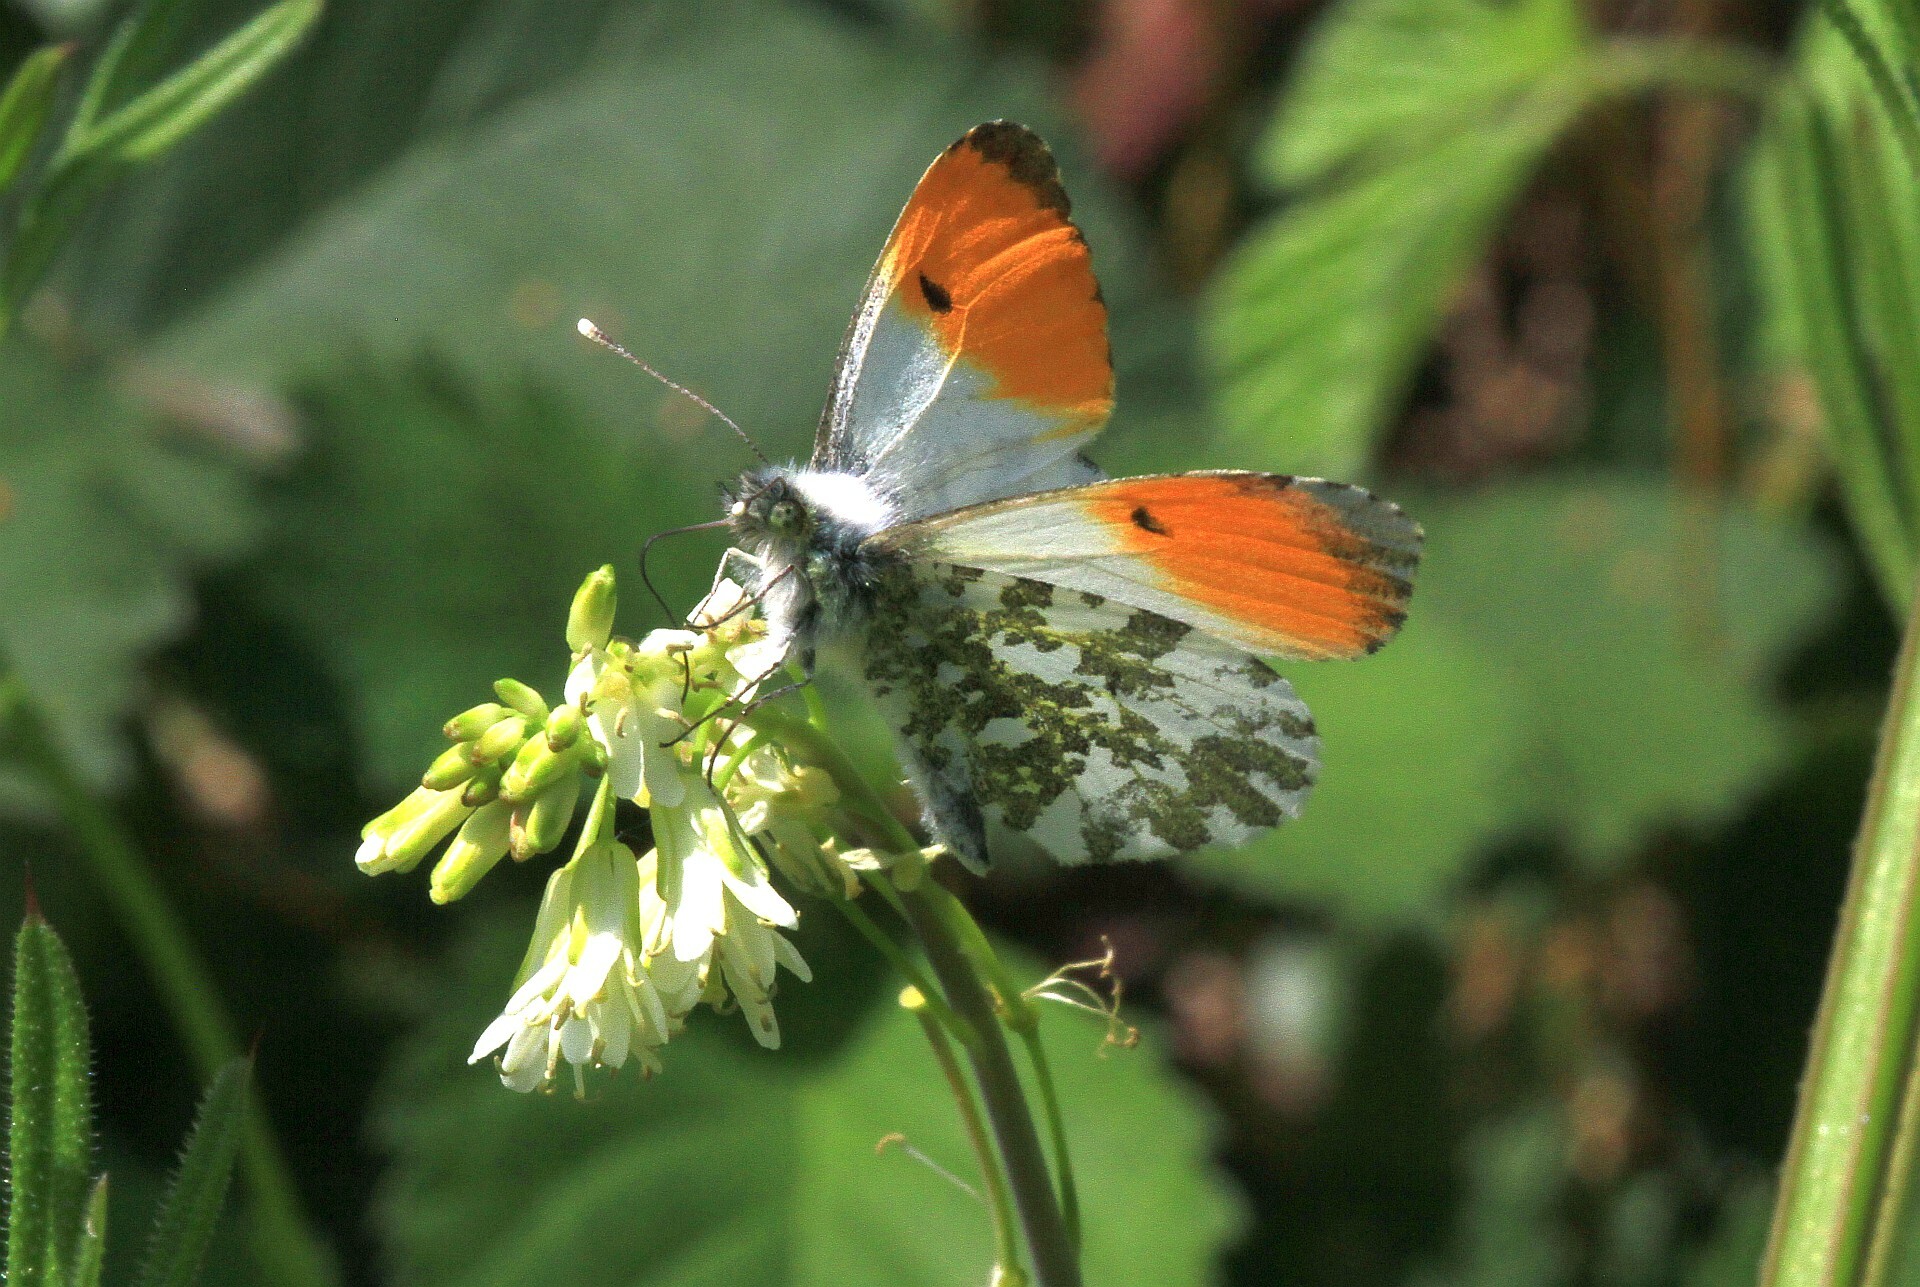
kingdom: Animalia
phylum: Arthropoda
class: Insecta
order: Lepidoptera
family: Pieridae
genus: Anthocharis
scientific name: Anthocharis cardamines
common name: Orange-tip
